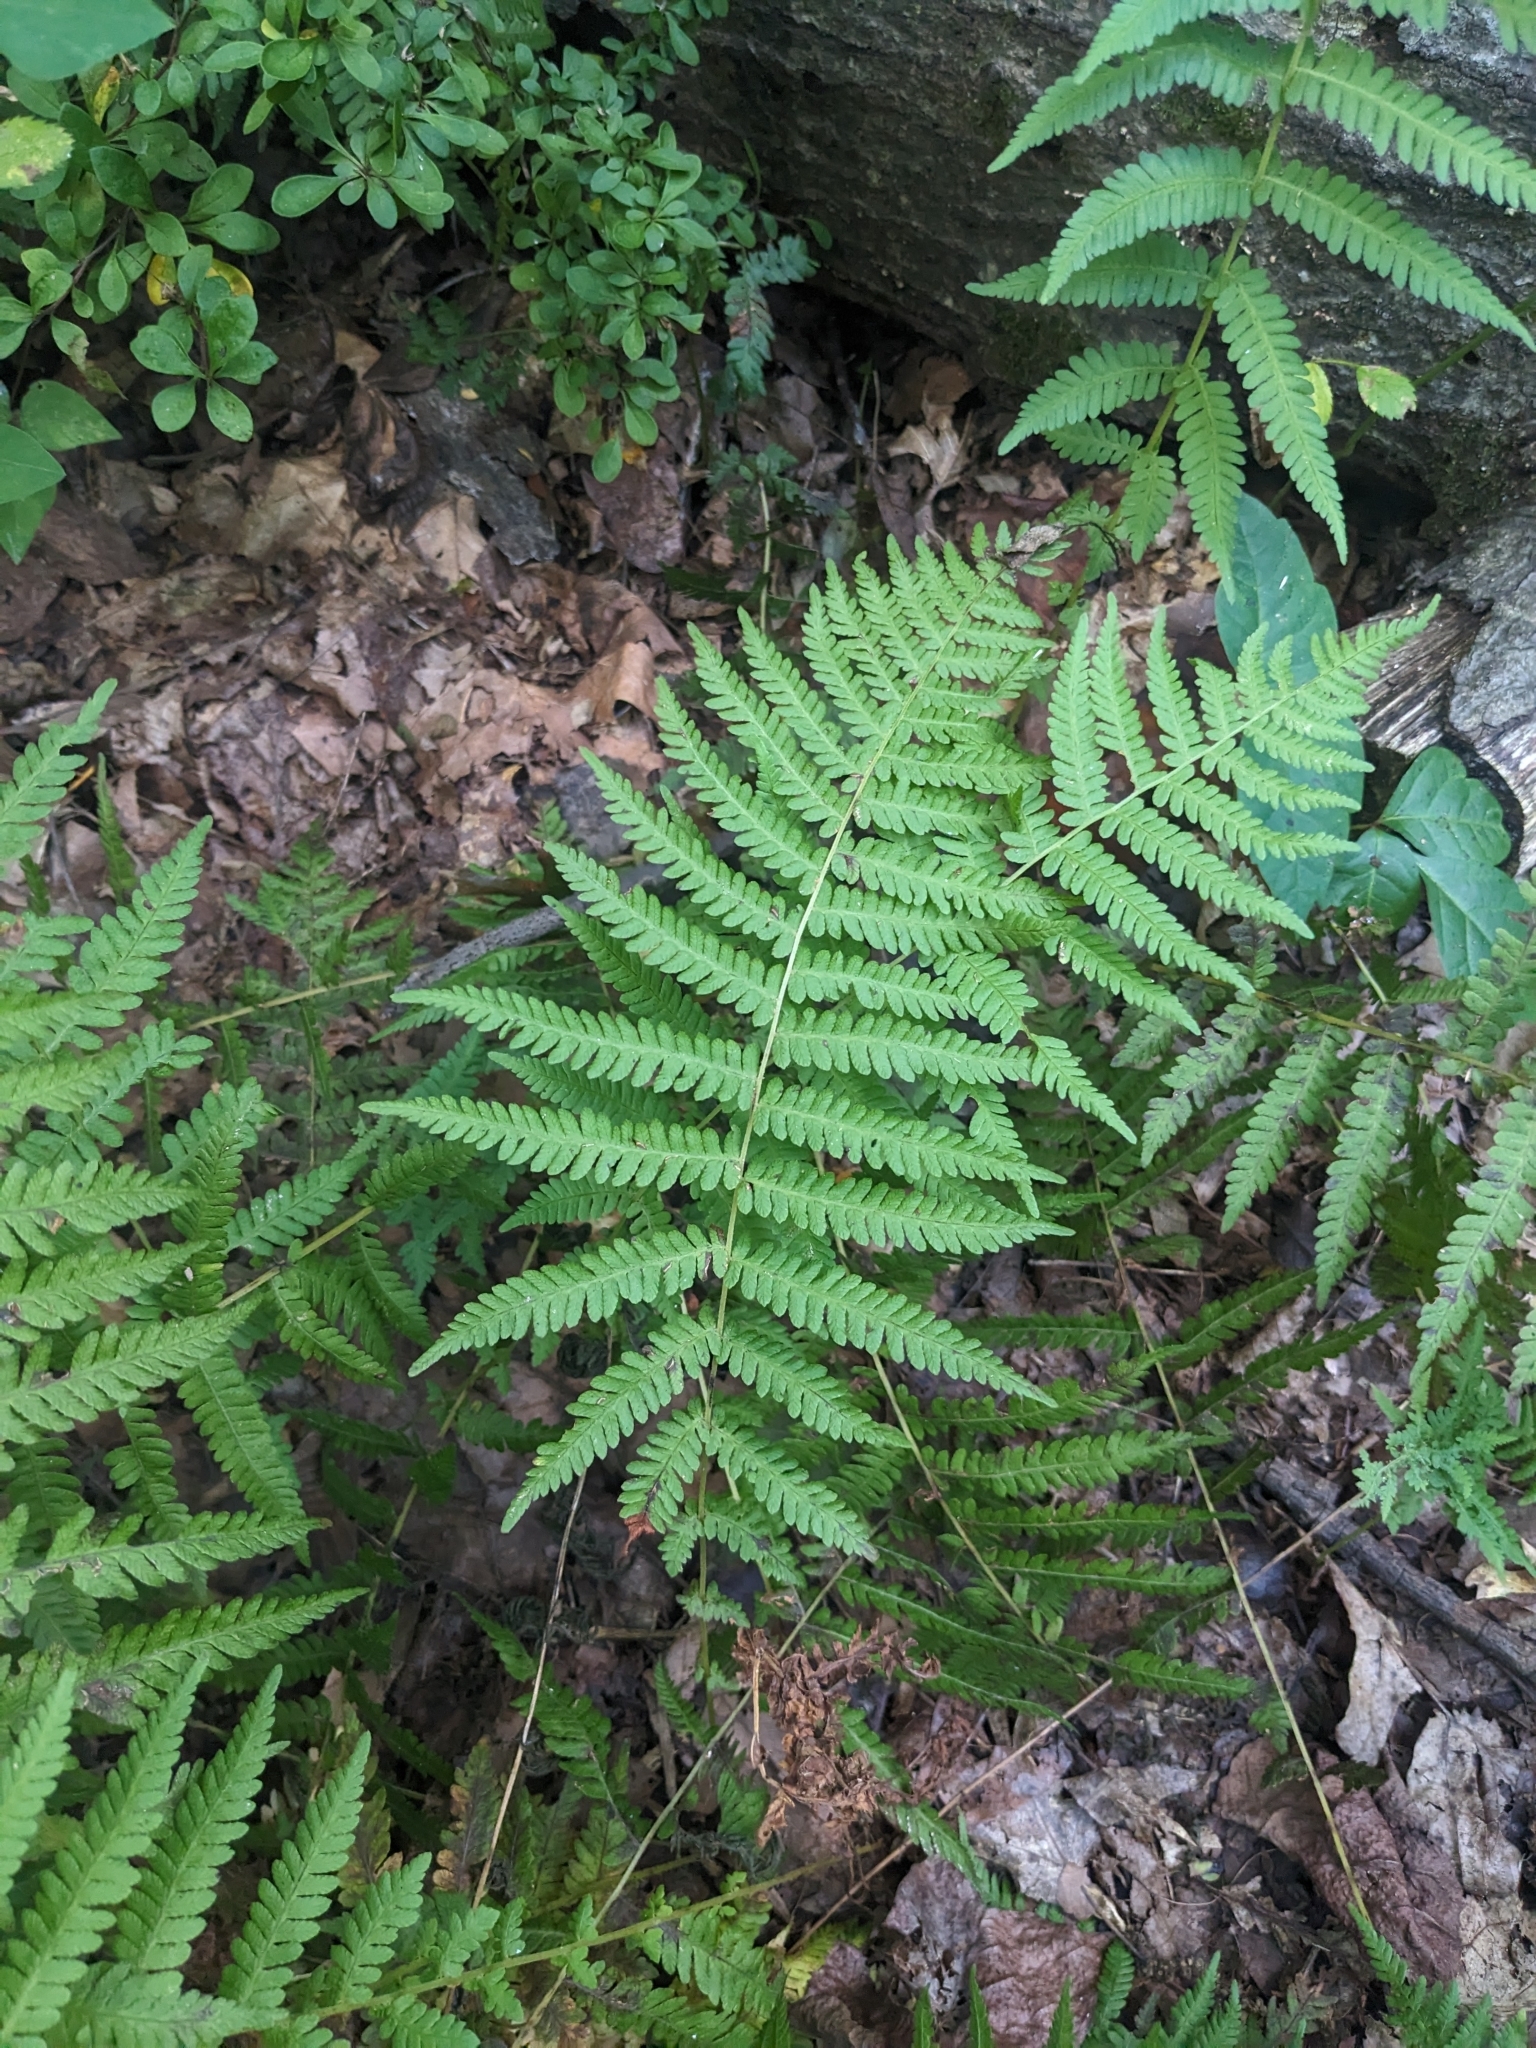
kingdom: Plantae
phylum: Tracheophyta
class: Polypodiopsida
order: Polypodiales
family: Thelypteridaceae
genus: Amauropelta
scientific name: Amauropelta noveboracensis
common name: New york fern
